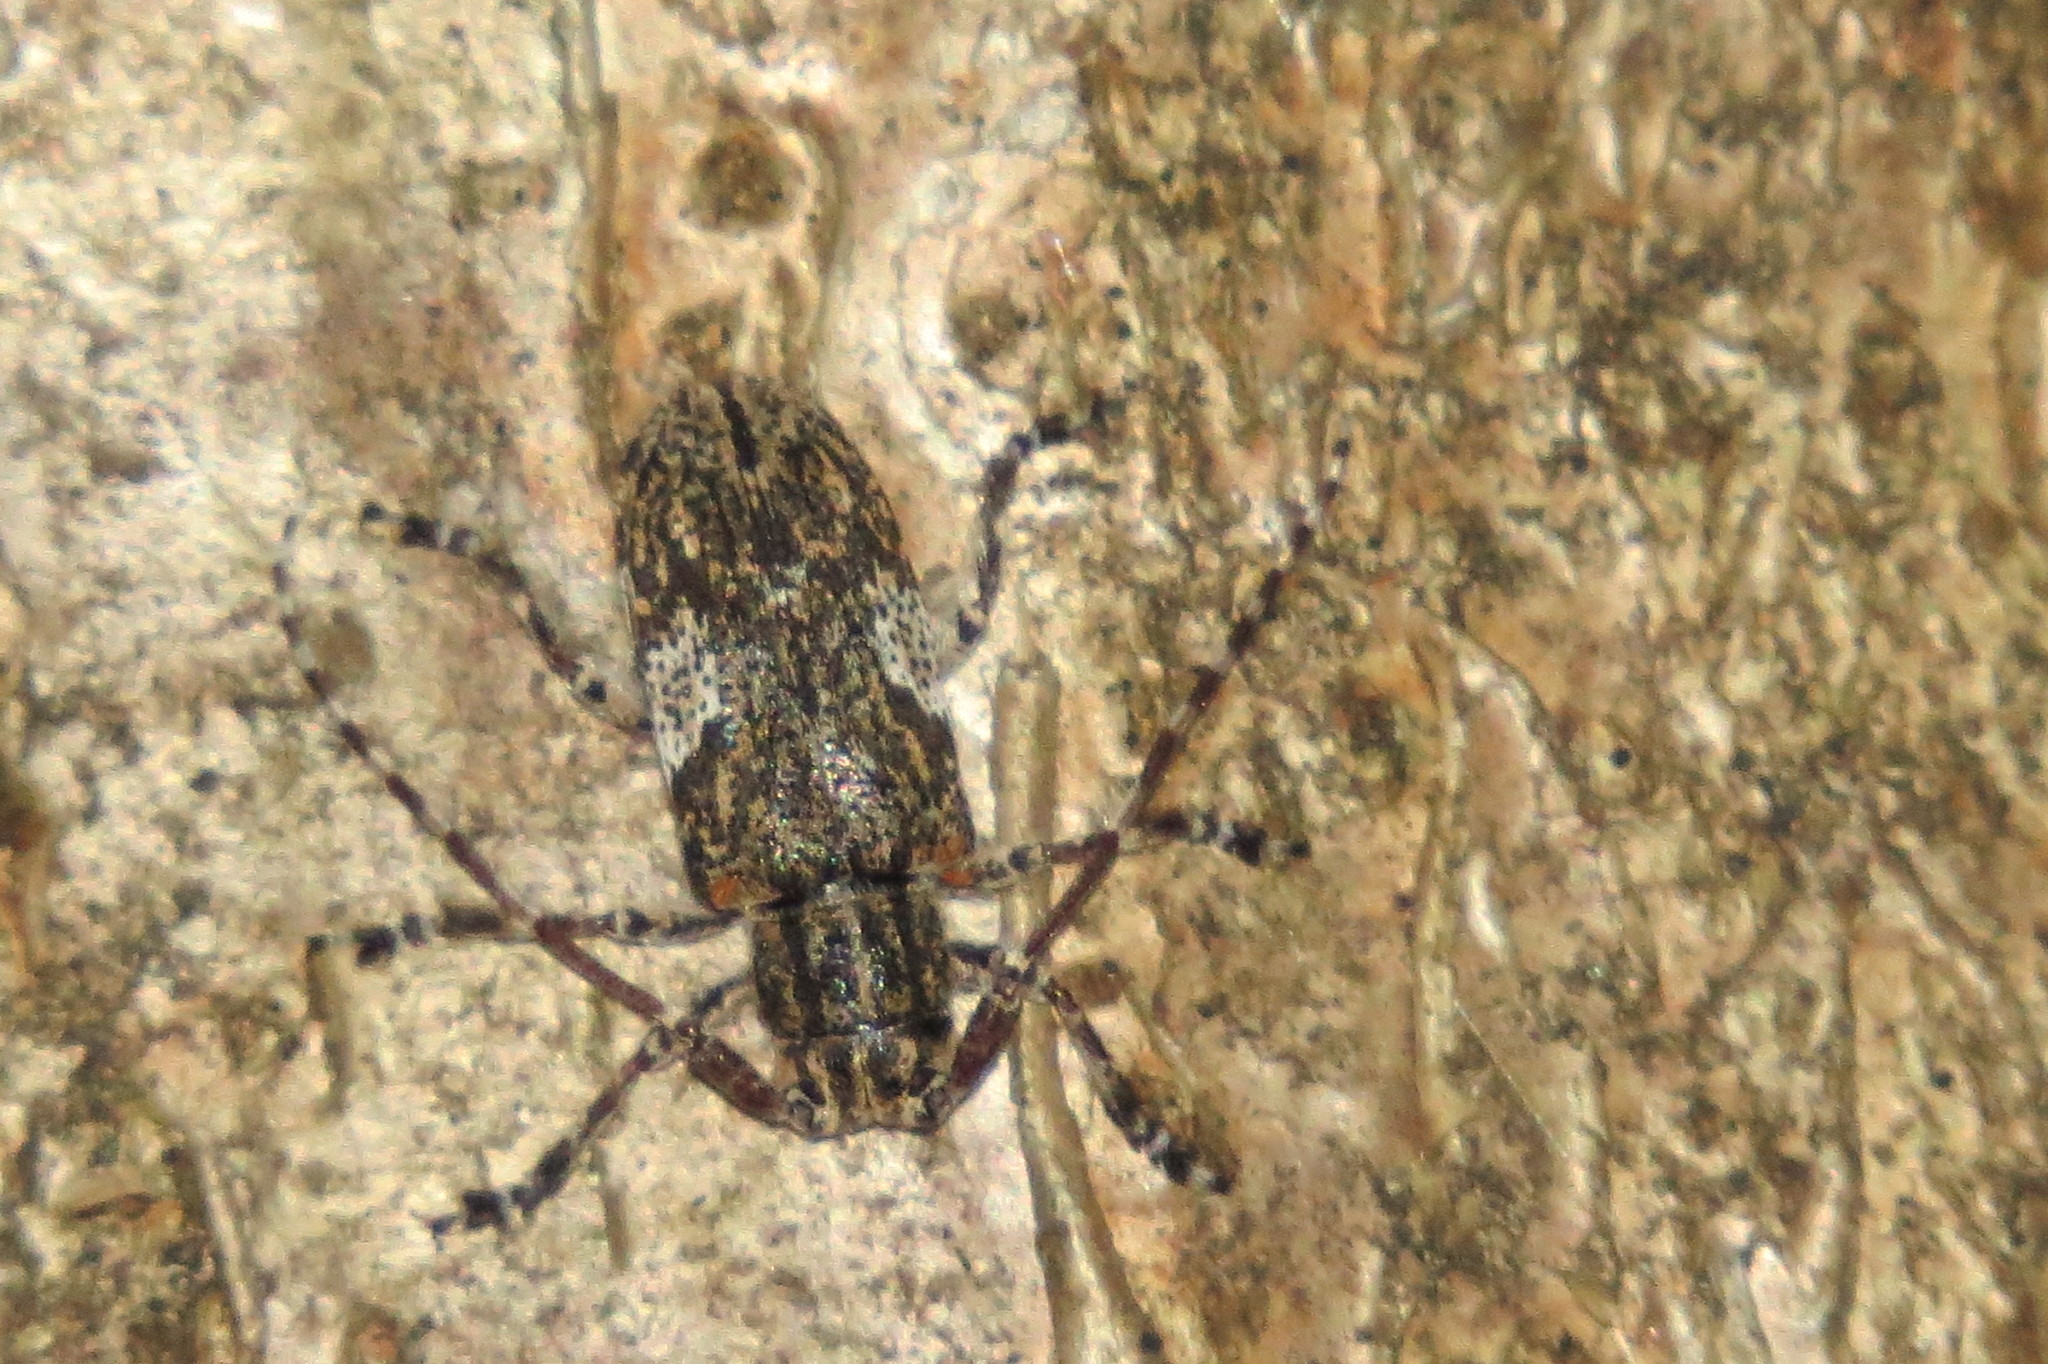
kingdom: Animalia
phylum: Arthropoda
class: Insecta
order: Coleoptera
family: Cerambycidae
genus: Mesosa
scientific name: Mesosa nebulosa
